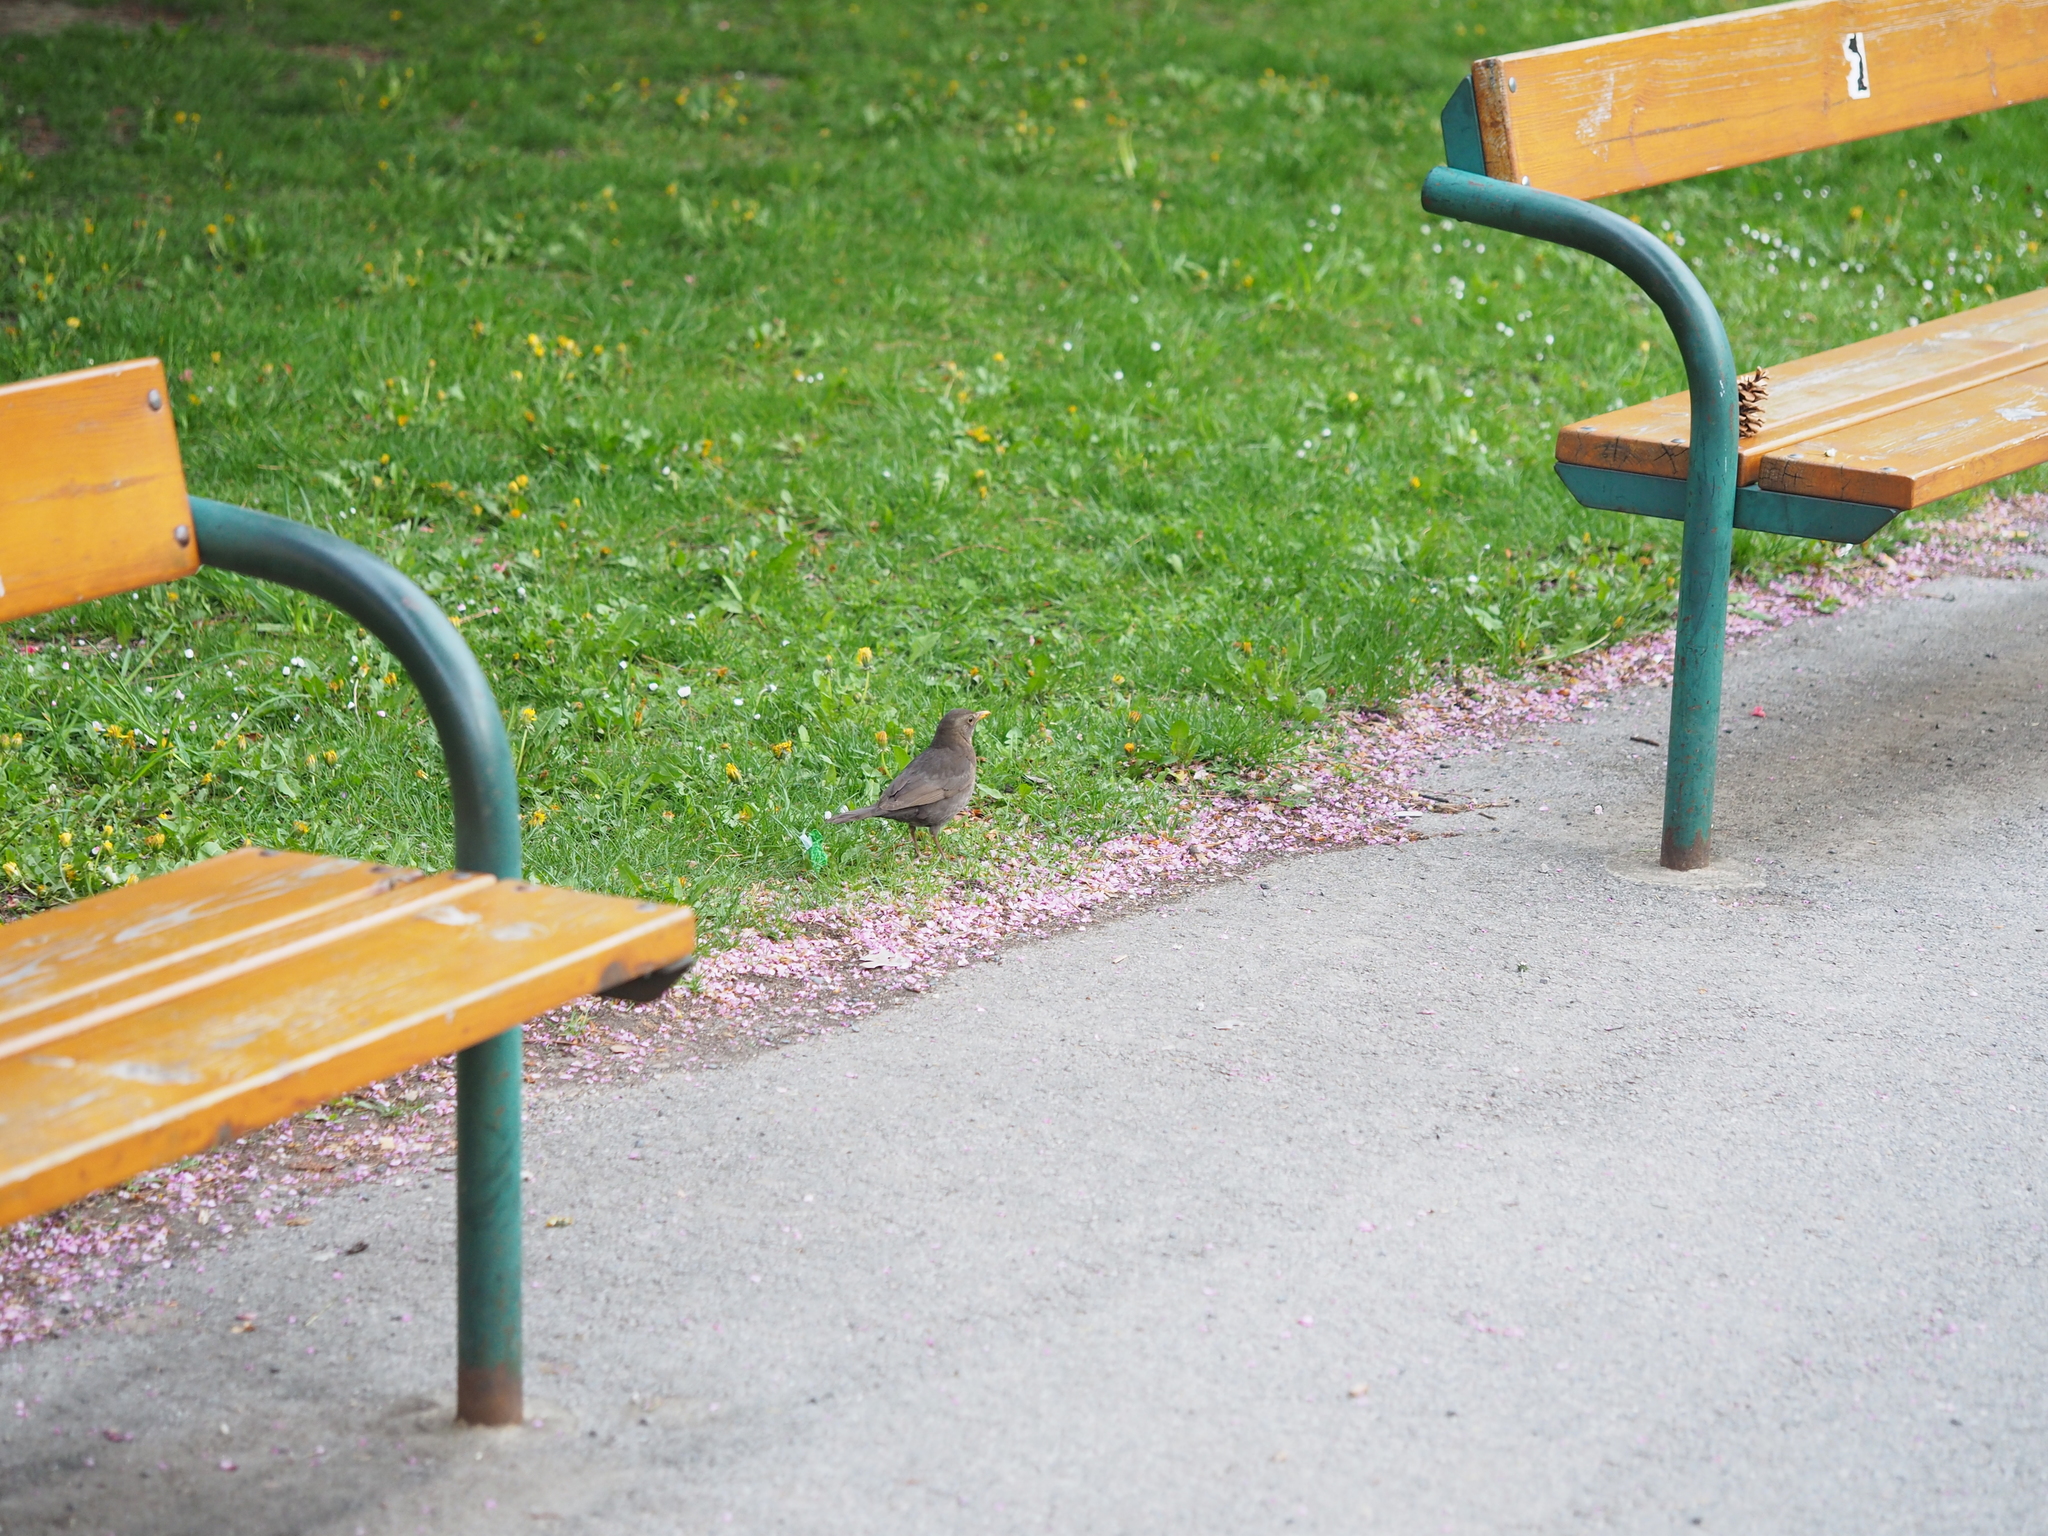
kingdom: Animalia
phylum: Chordata
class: Aves
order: Passeriformes
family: Turdidae
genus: Turdus
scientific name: Turdus merula
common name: Common blackbird
